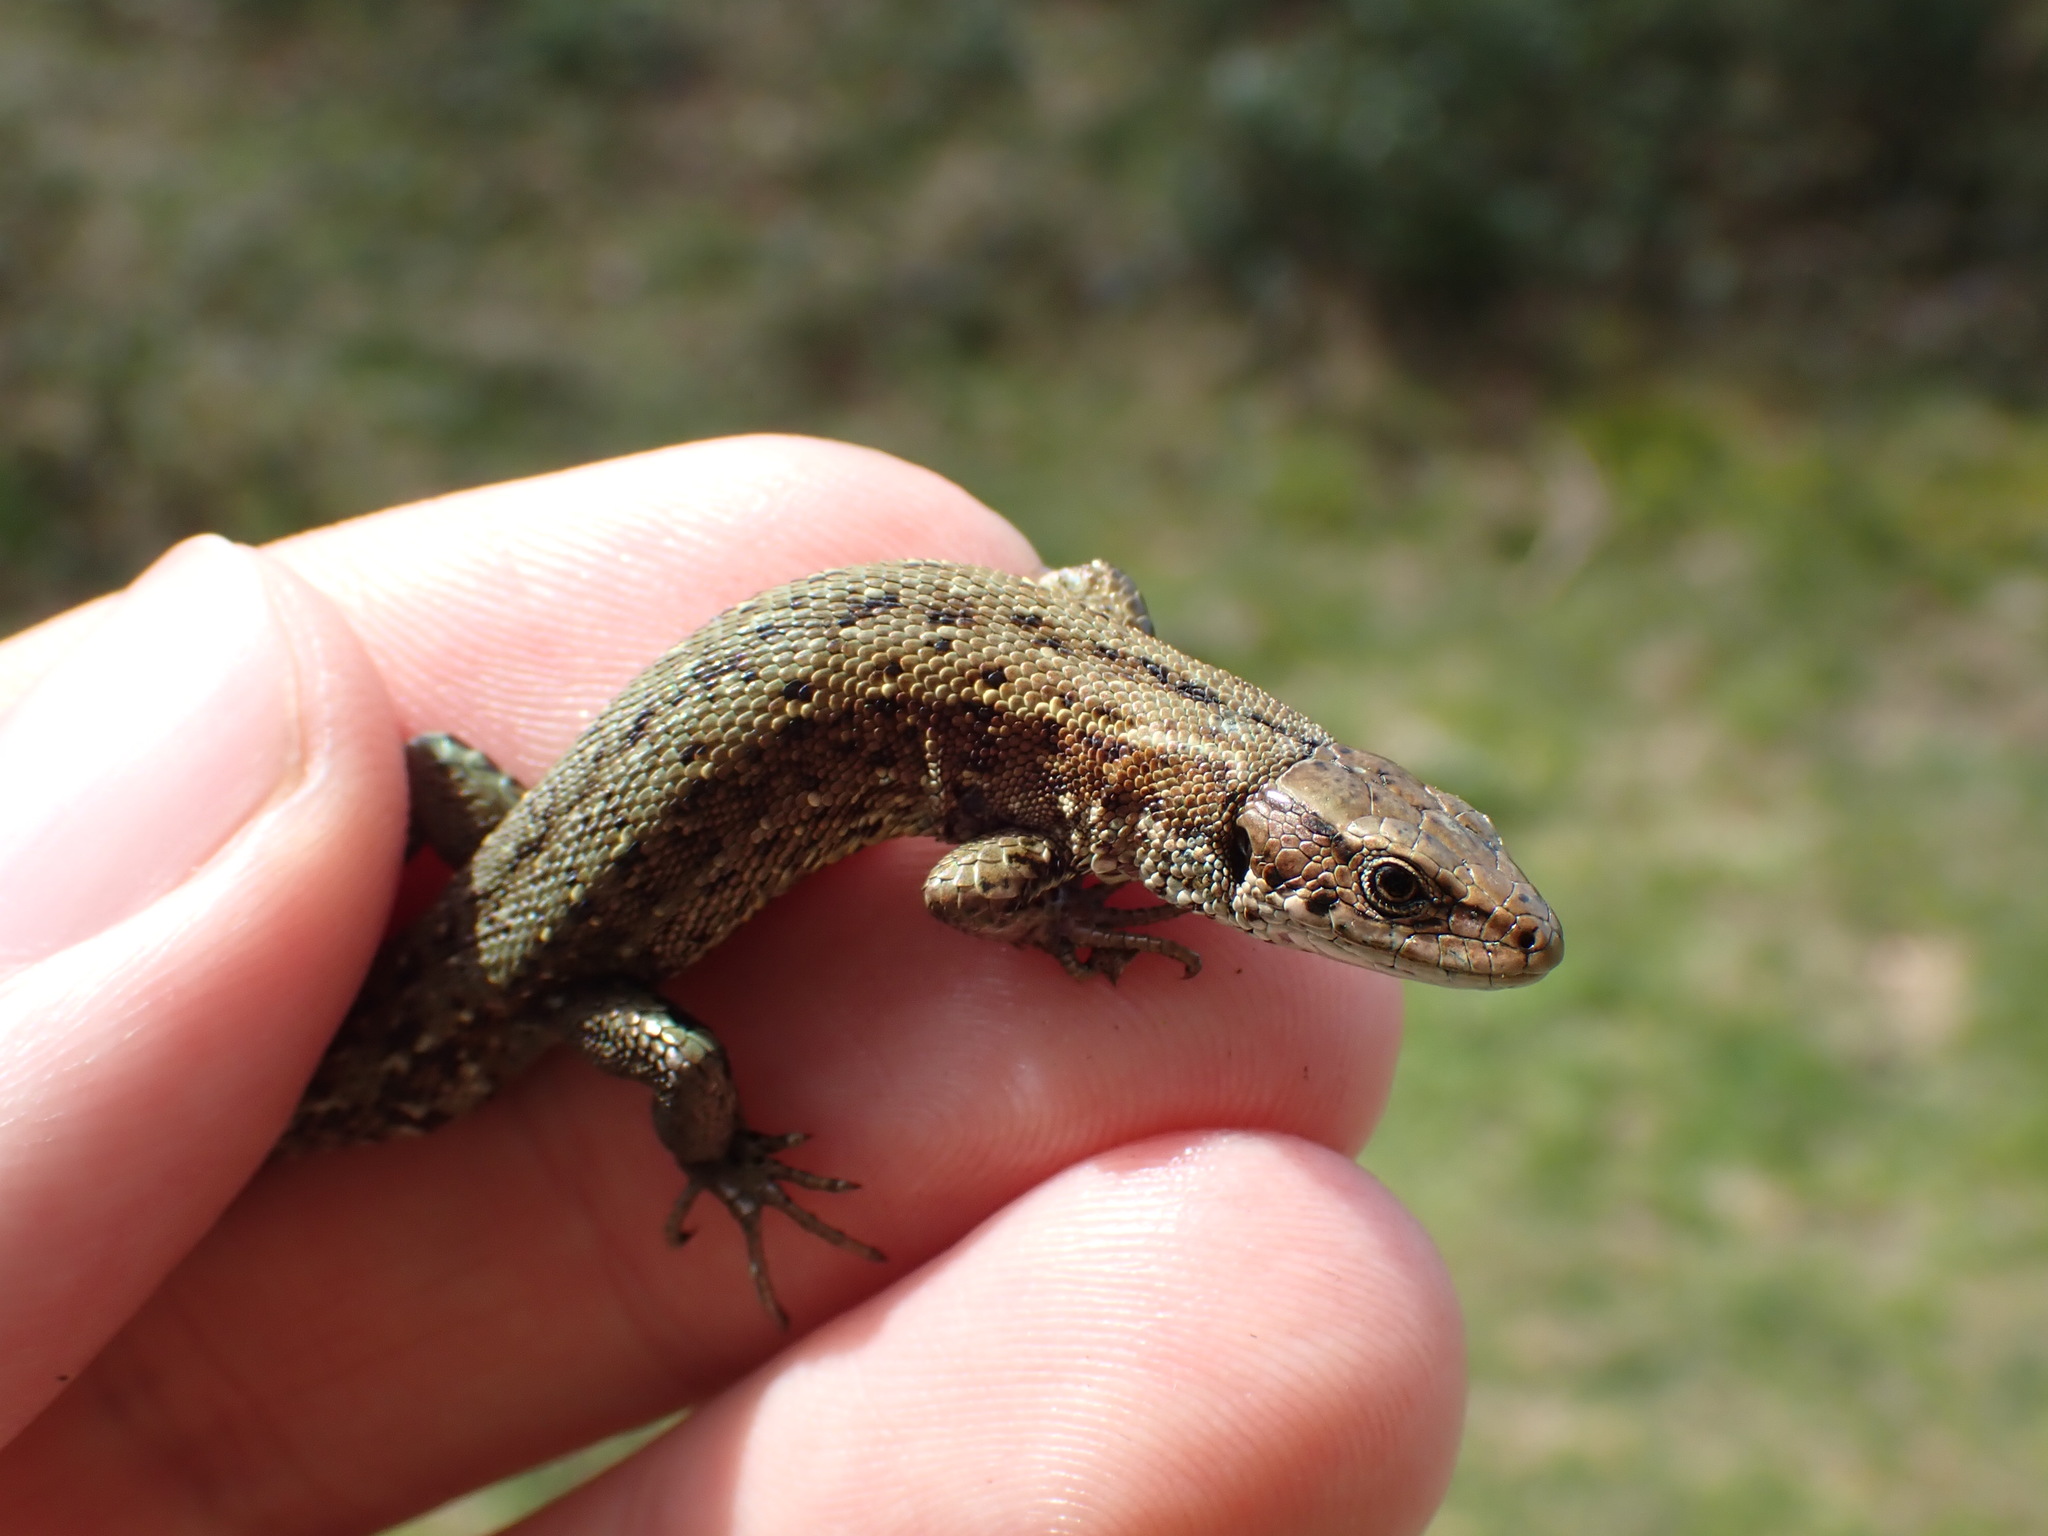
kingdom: Animalia
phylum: Chordata
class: Squamata
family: Lacertidae
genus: Zootoca
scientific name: Zootoca vivipara
